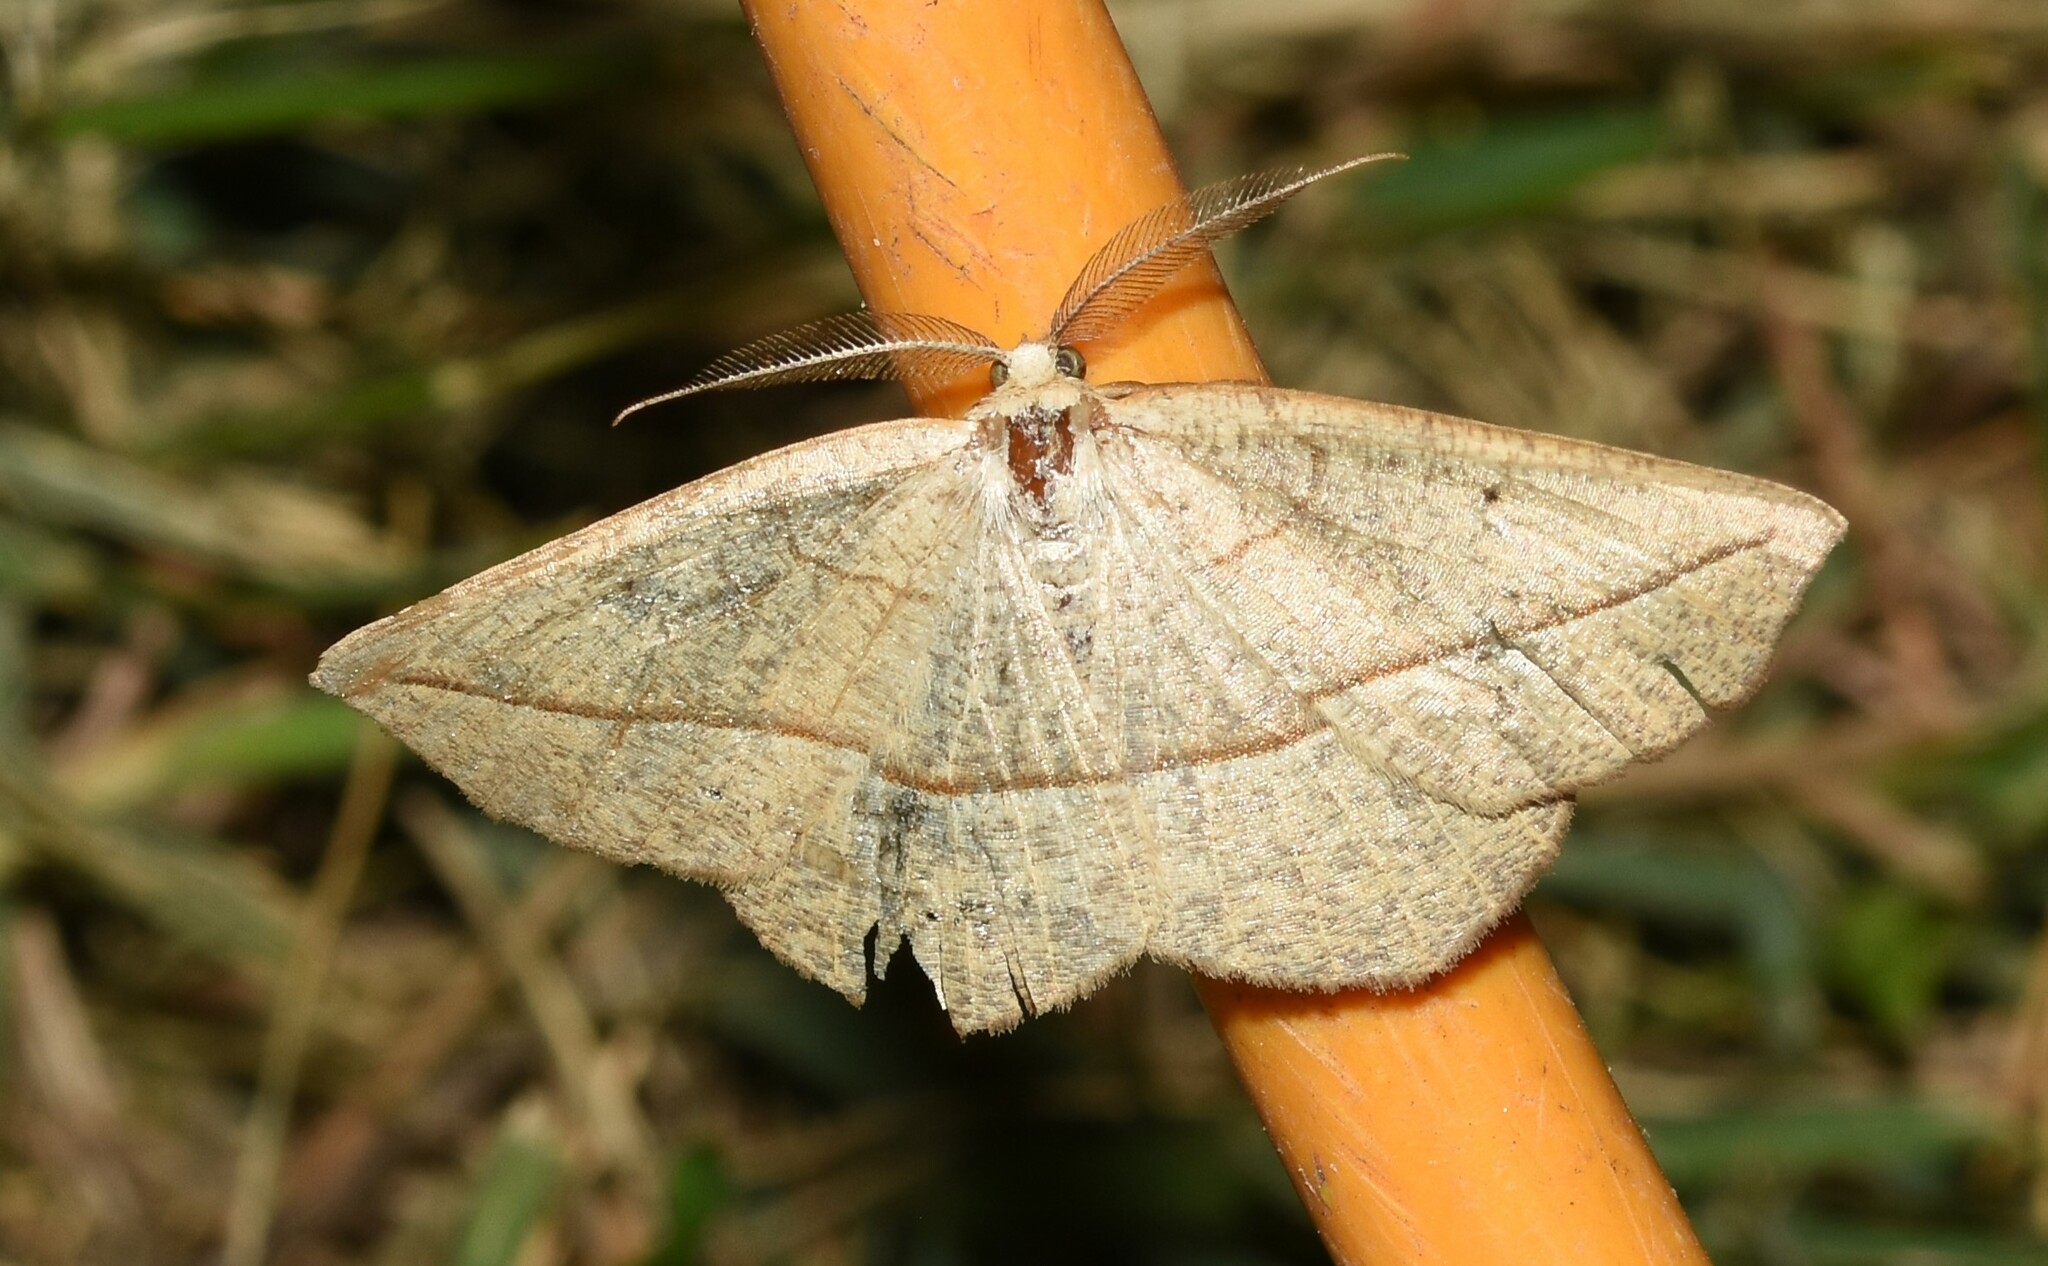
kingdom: Animalia
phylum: Arthropoda
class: Insecta
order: Lepidoptera
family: Geometridae
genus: Eusarca
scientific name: Eusarca confusaria
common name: Confused eusarca
